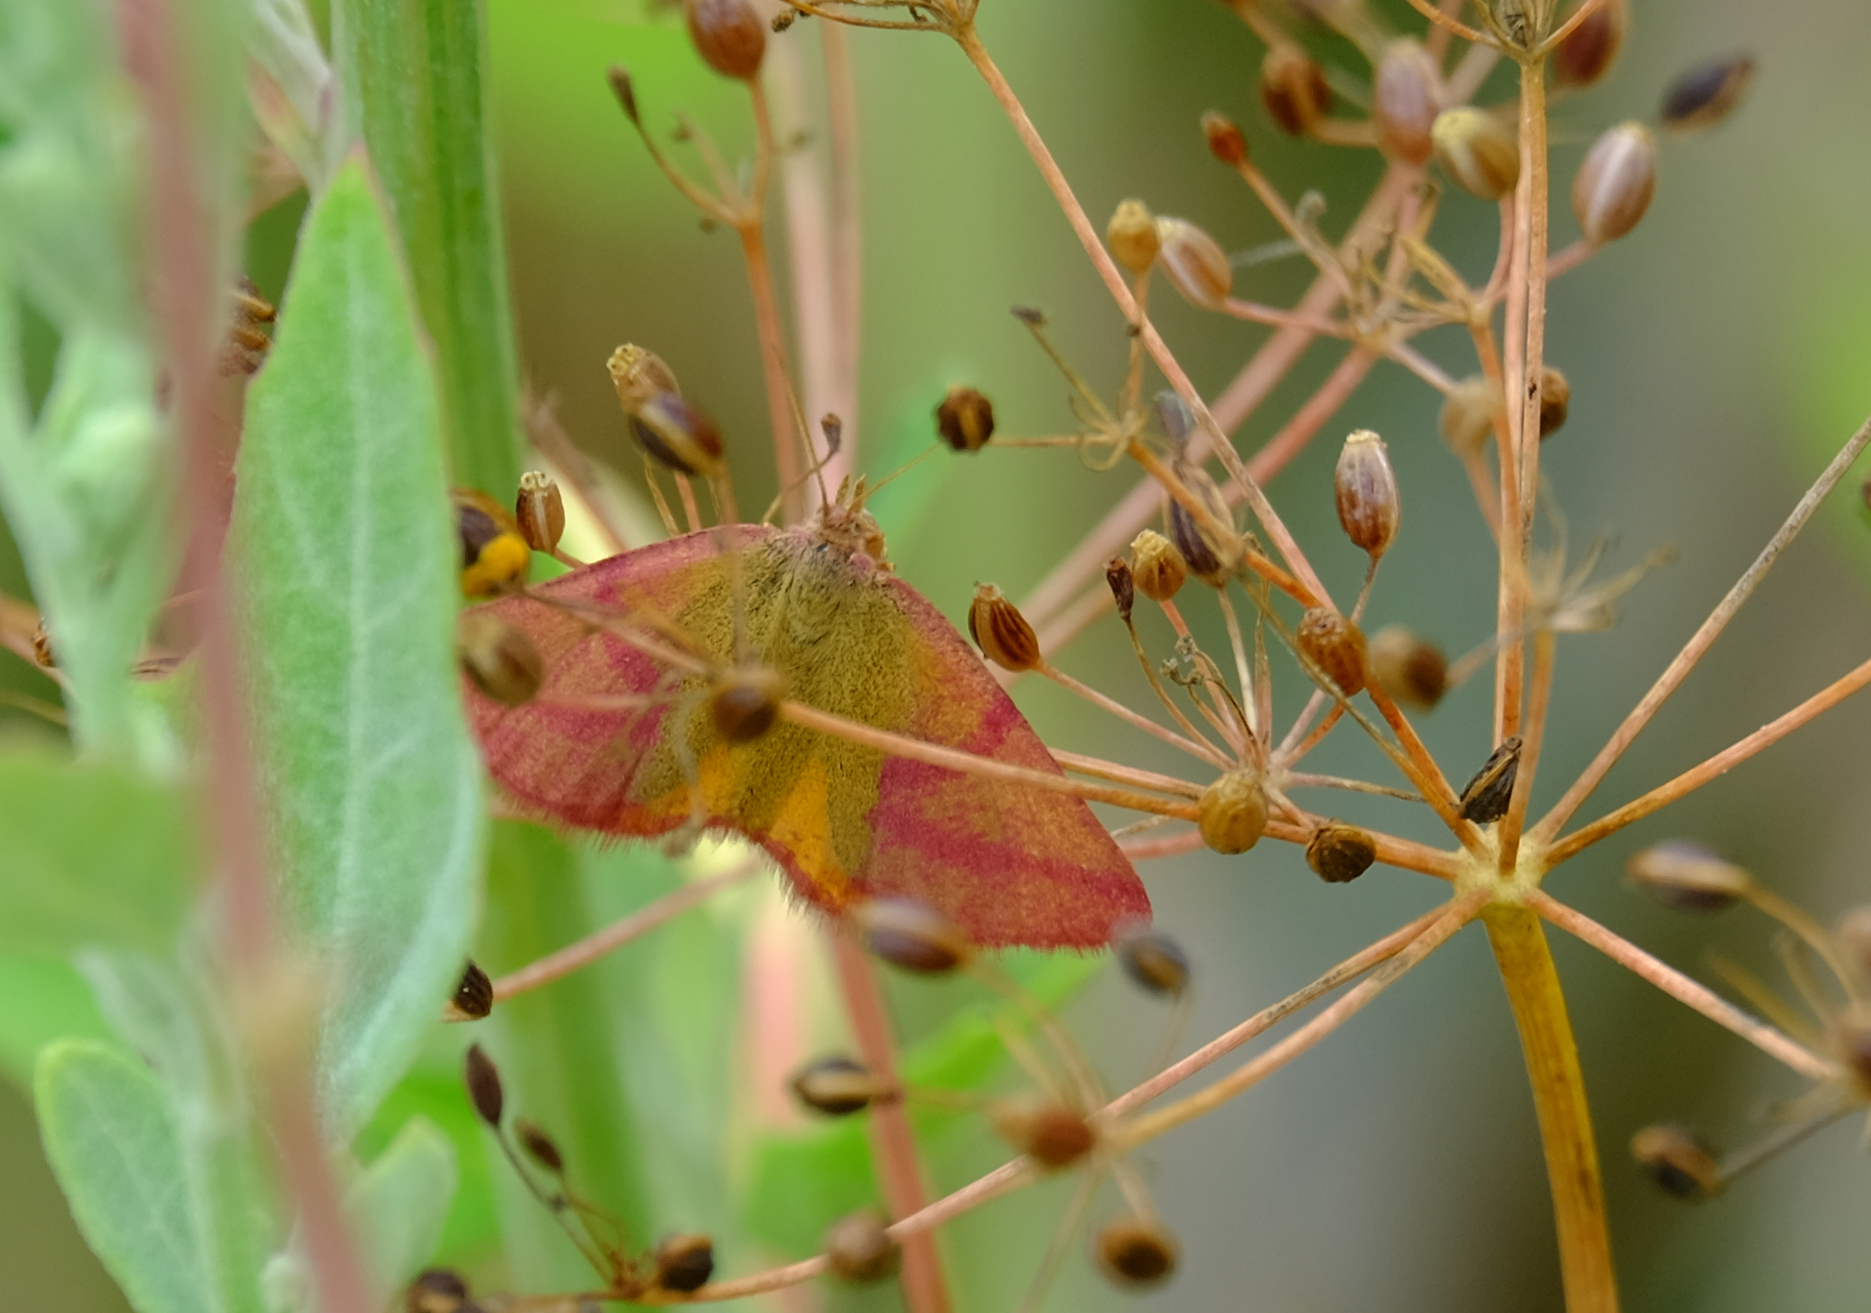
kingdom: Animalia
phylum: Arthropoda
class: Insecta
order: Lepidoptera
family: Geometridae
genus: Lythria
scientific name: Lythria purpuraria
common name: Purple-barred yellow
